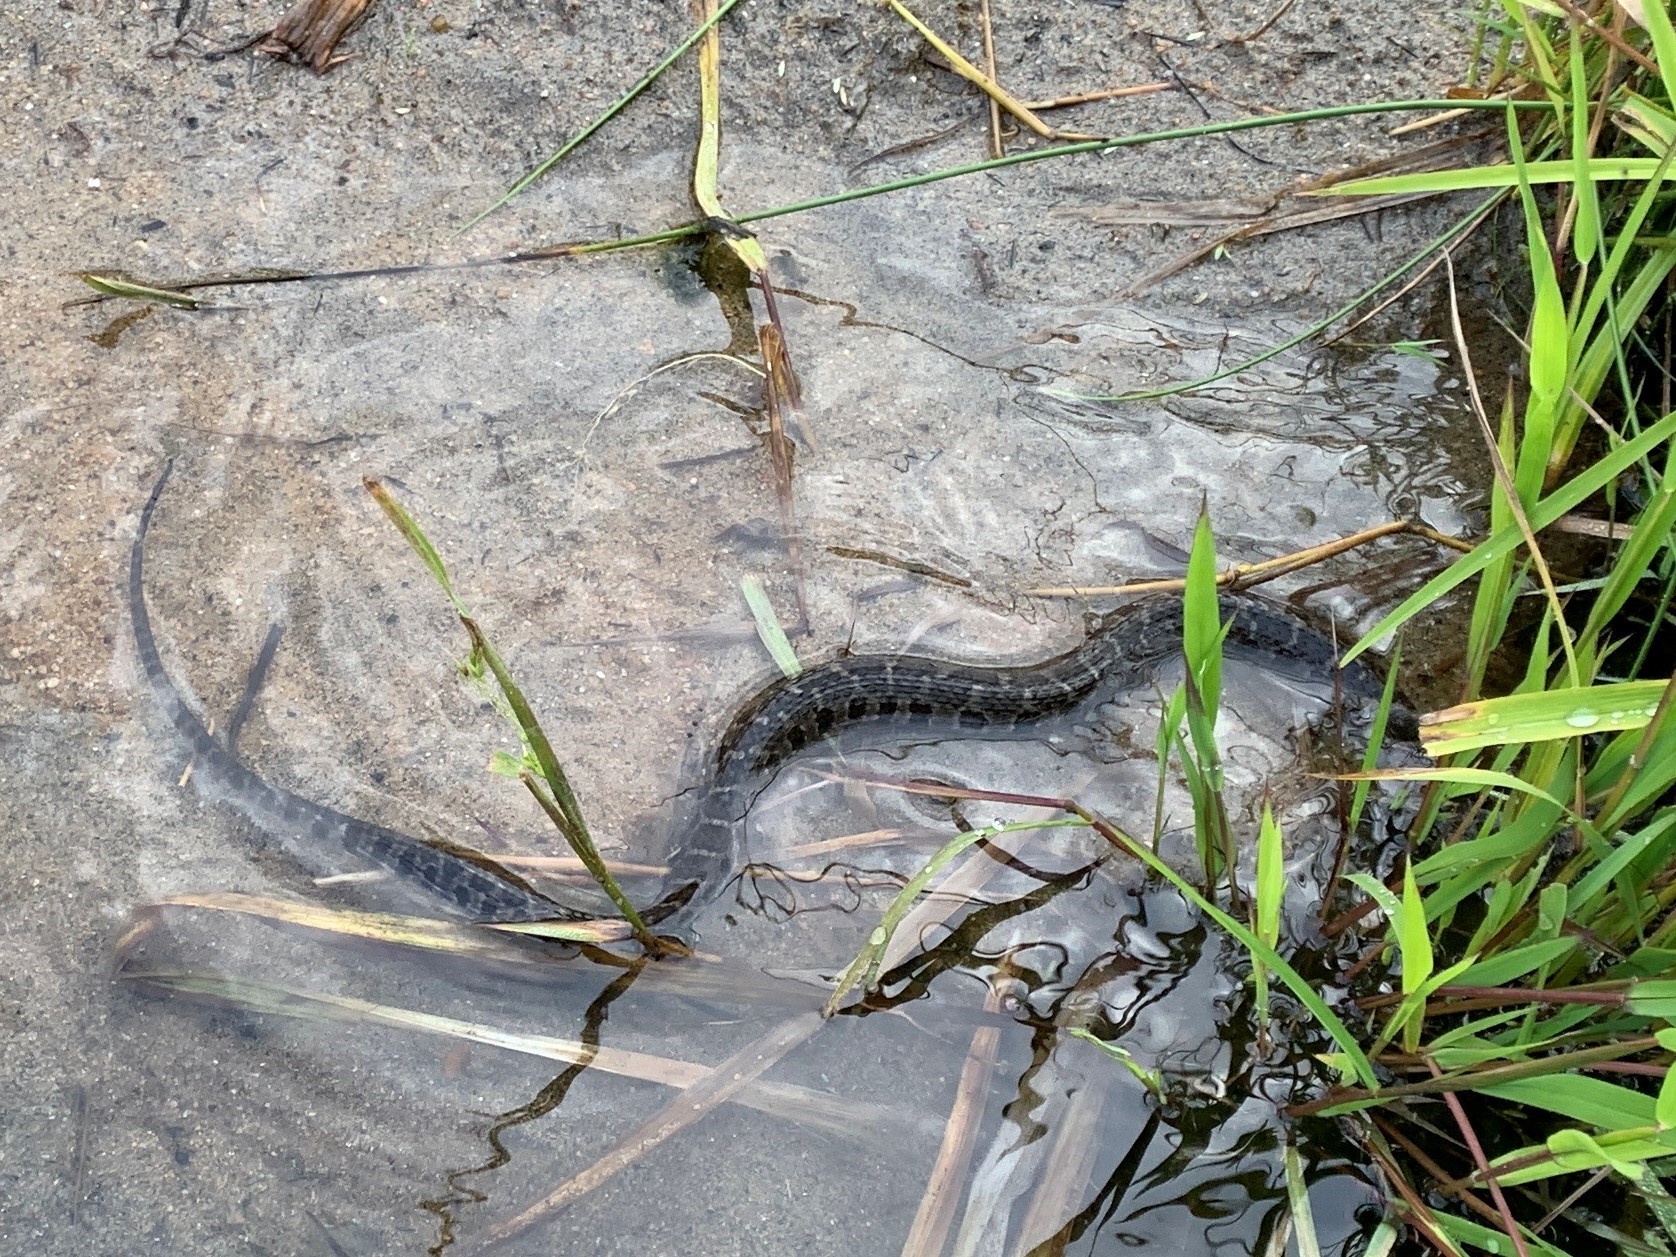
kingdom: Animalia
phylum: Chordata
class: Squamata
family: Colubridae
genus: Nerodia
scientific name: Nerodia sipedon
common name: Northern water snake
